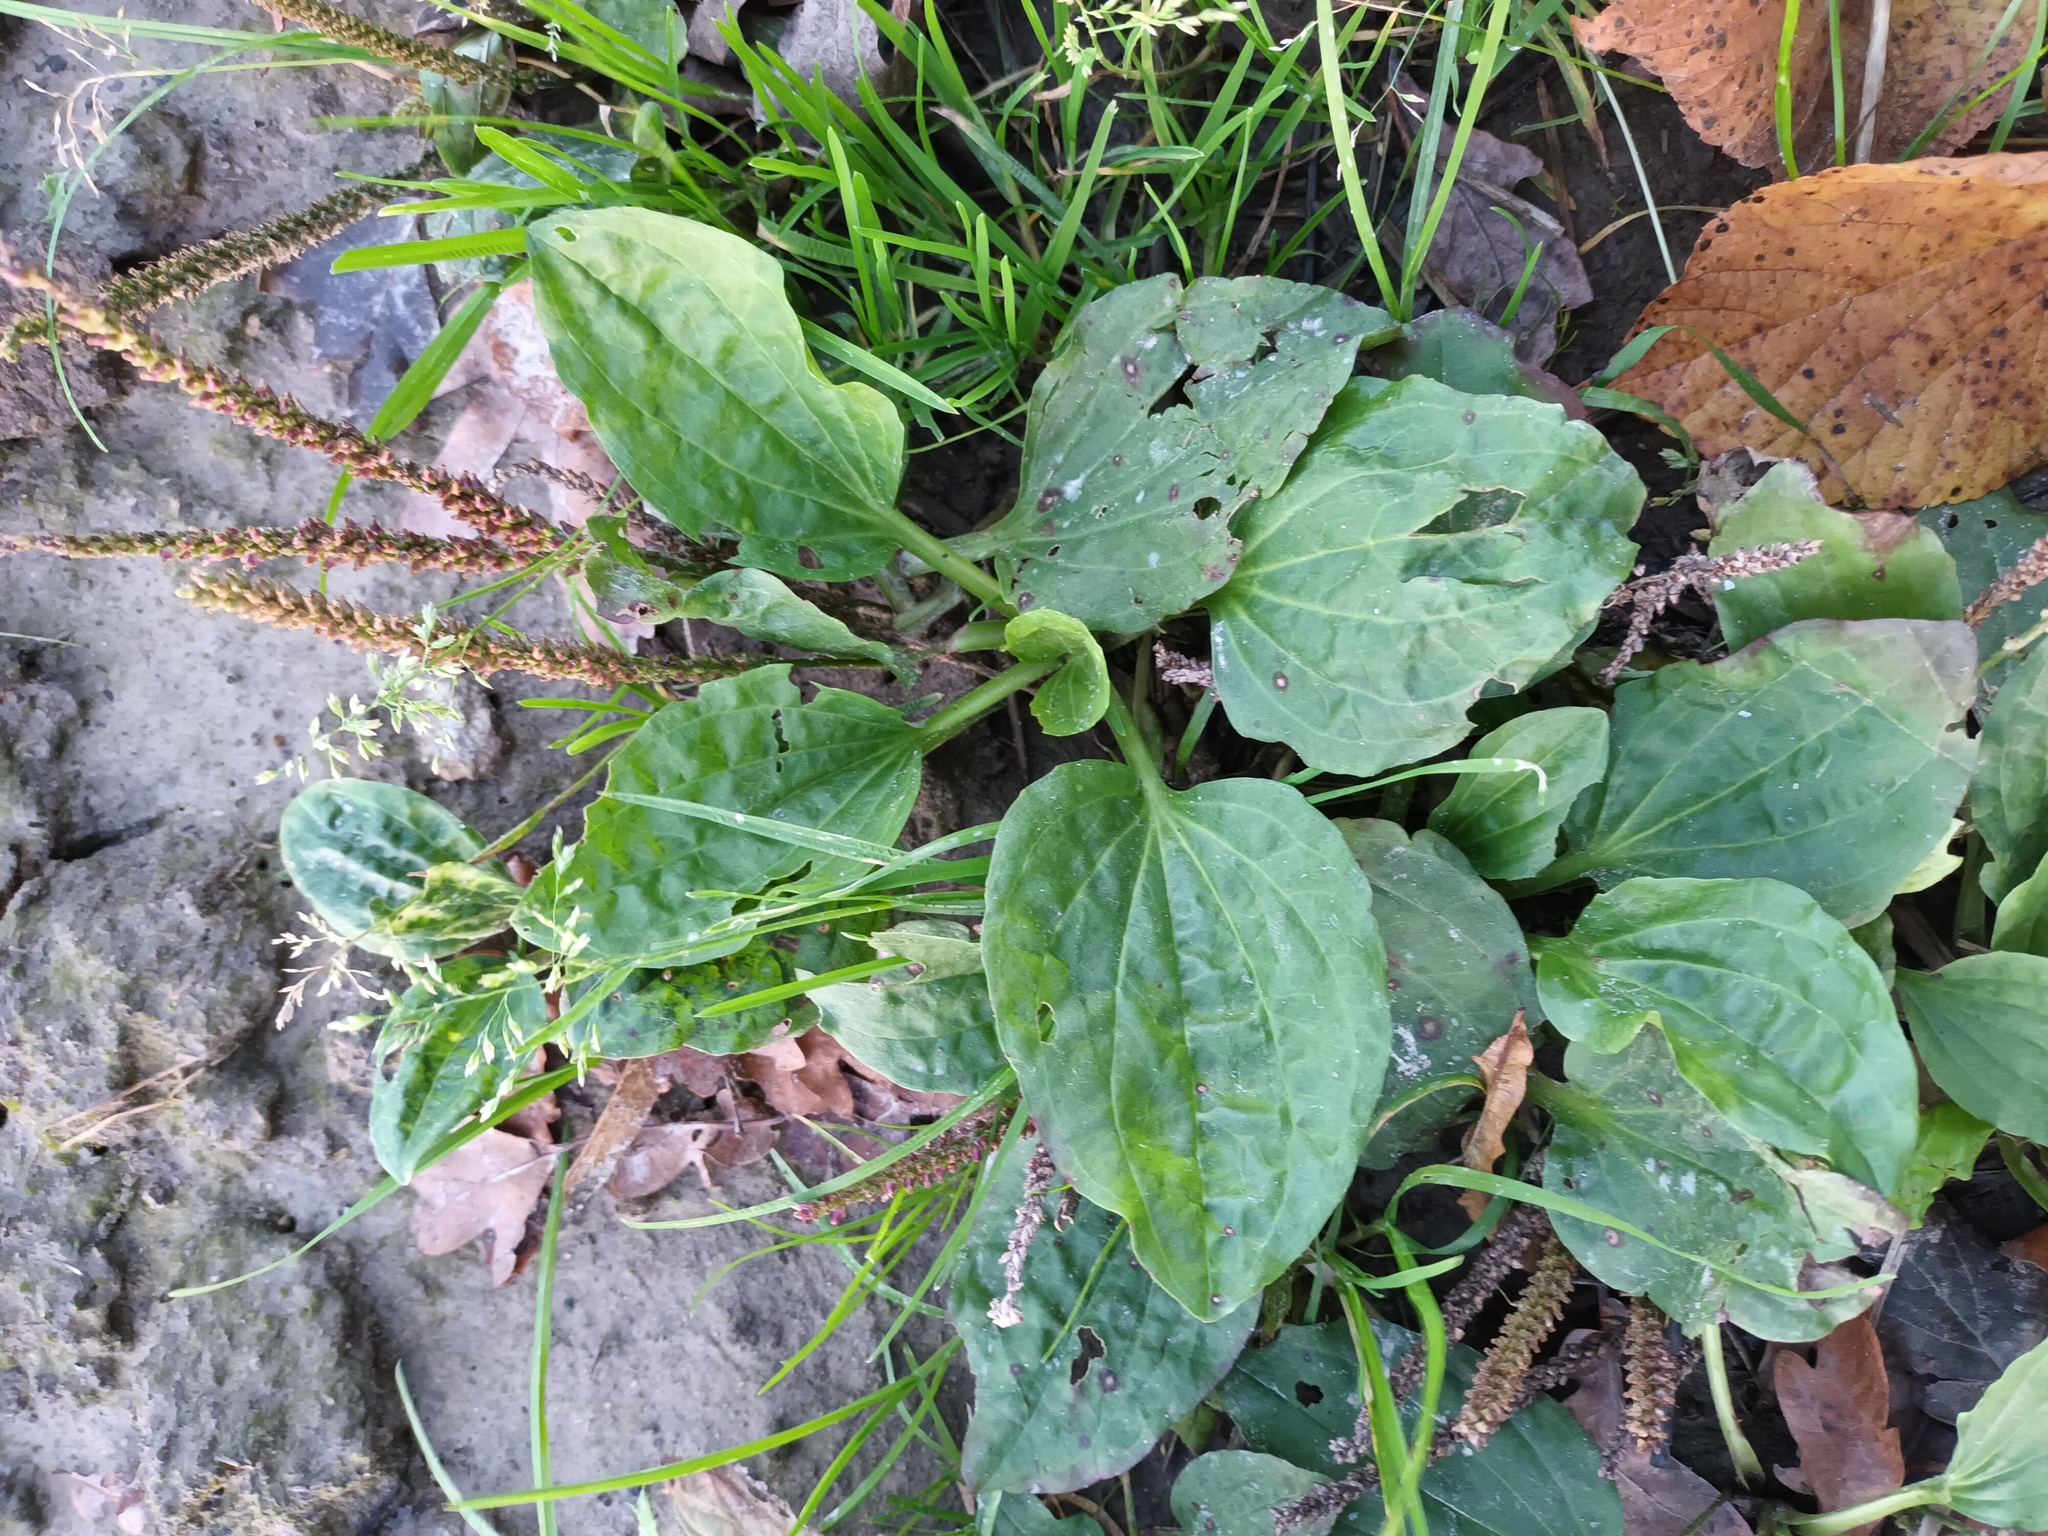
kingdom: Plantae
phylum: Tracheophyta
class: Magnoliopsida
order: Lamiales
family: Plantaginaceae
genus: Plantago
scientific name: Plantago major
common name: Common plantain
